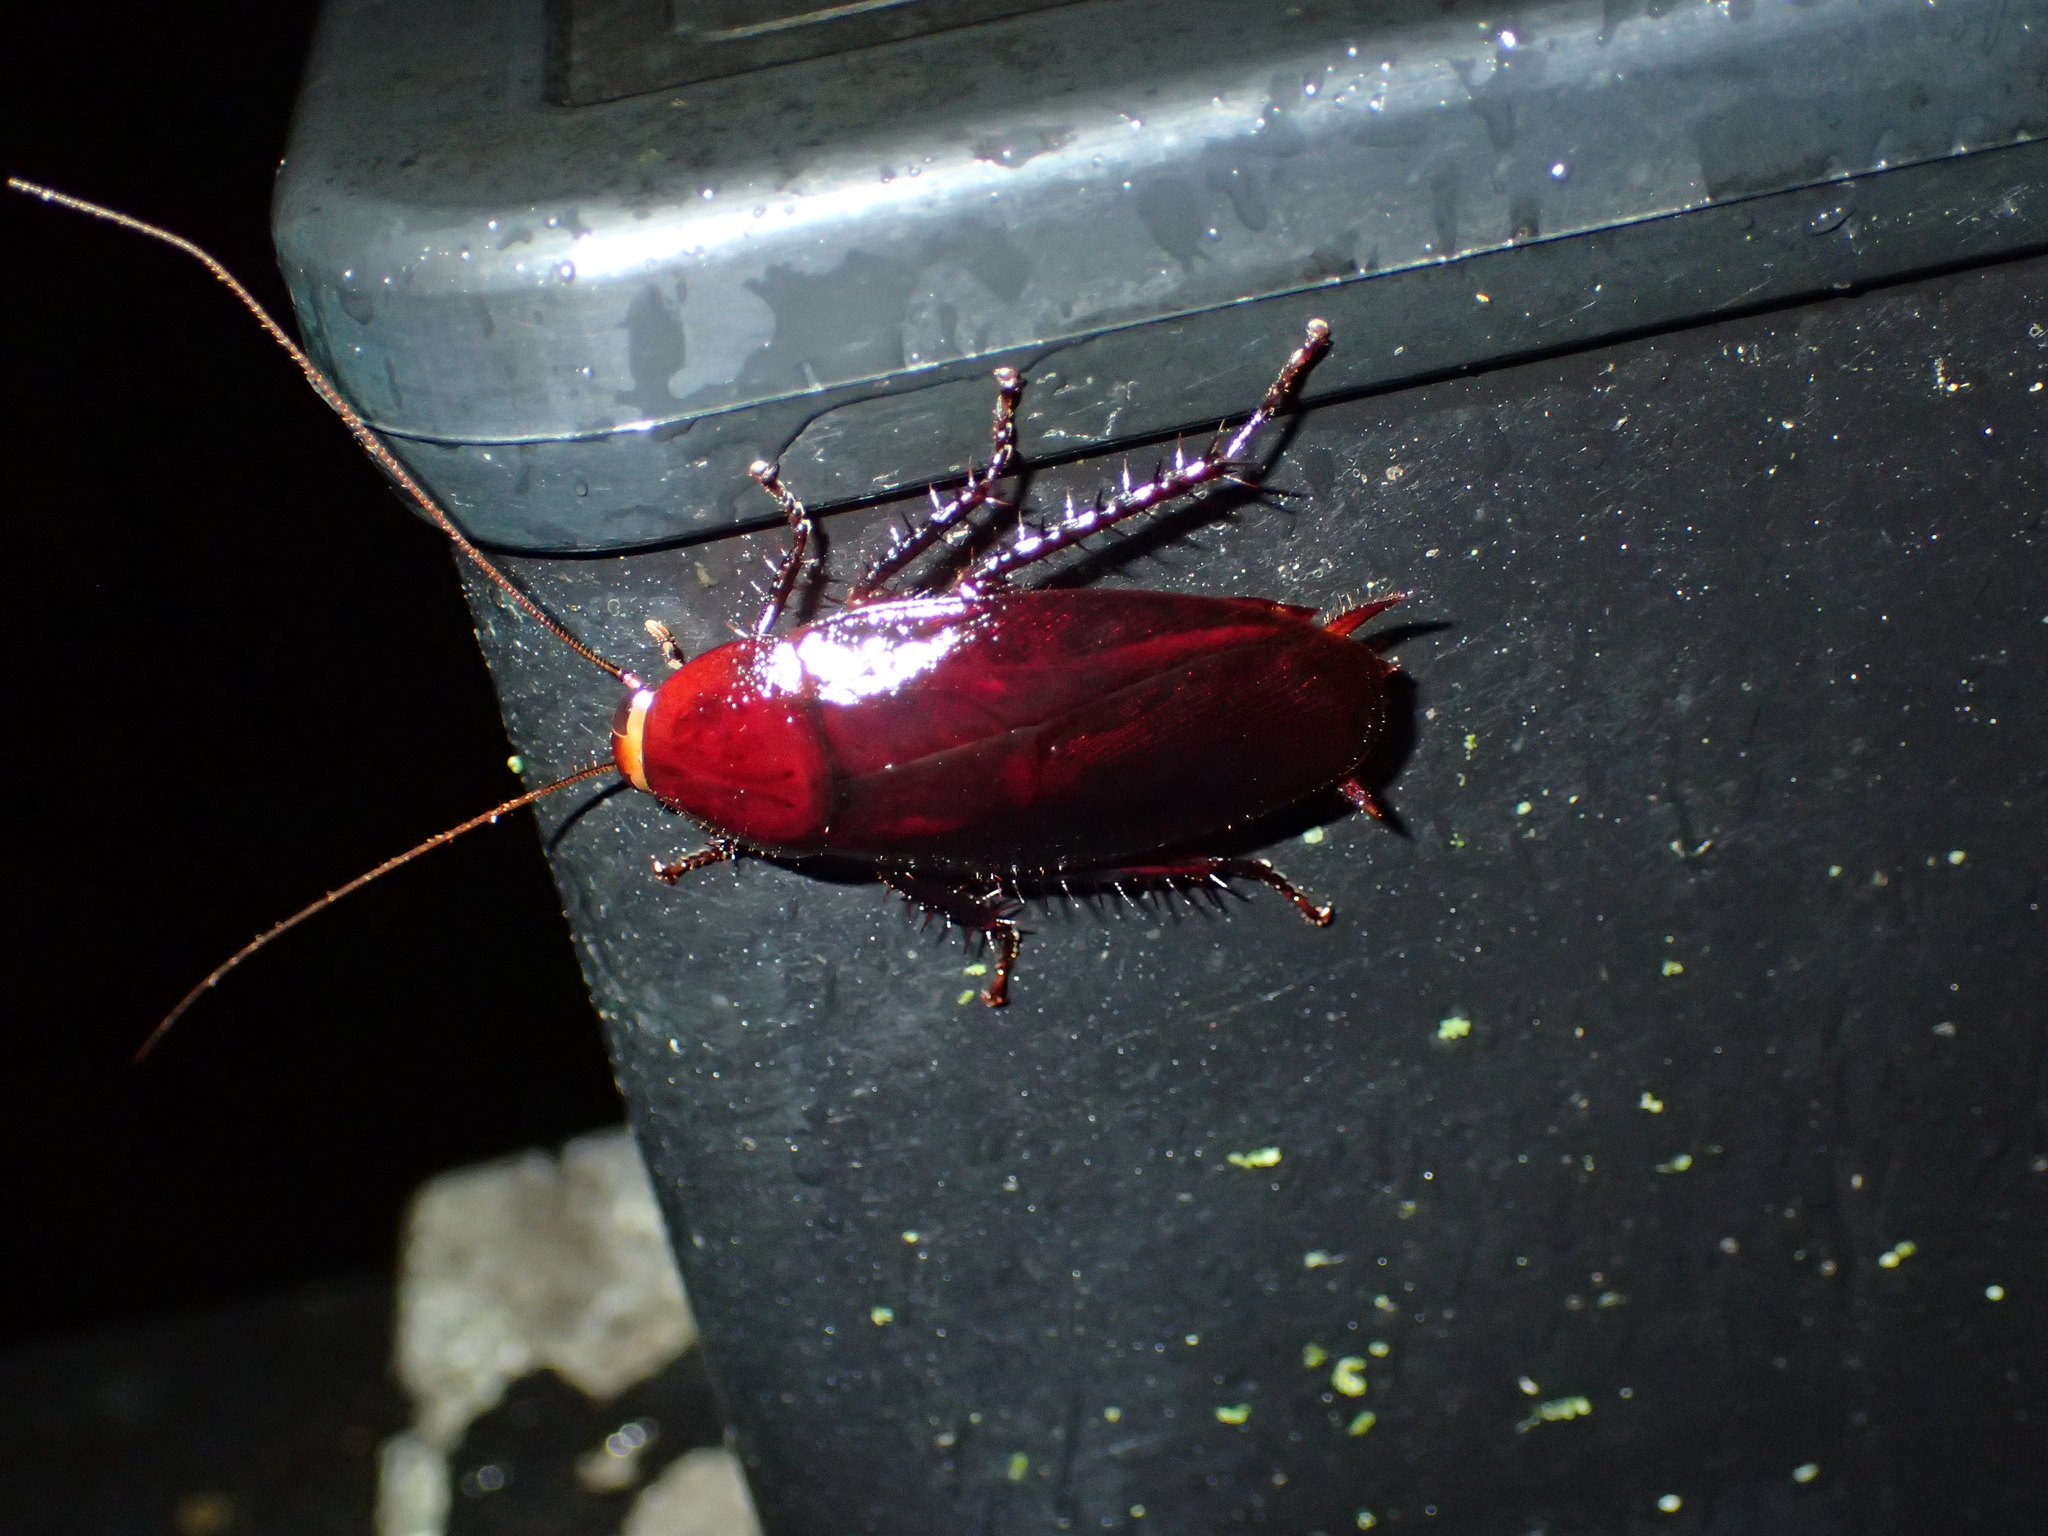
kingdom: Animalia
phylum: Arthropoda
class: Insecta
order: Blattodea
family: Blattidae
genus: Methana
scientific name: Methana convexa
